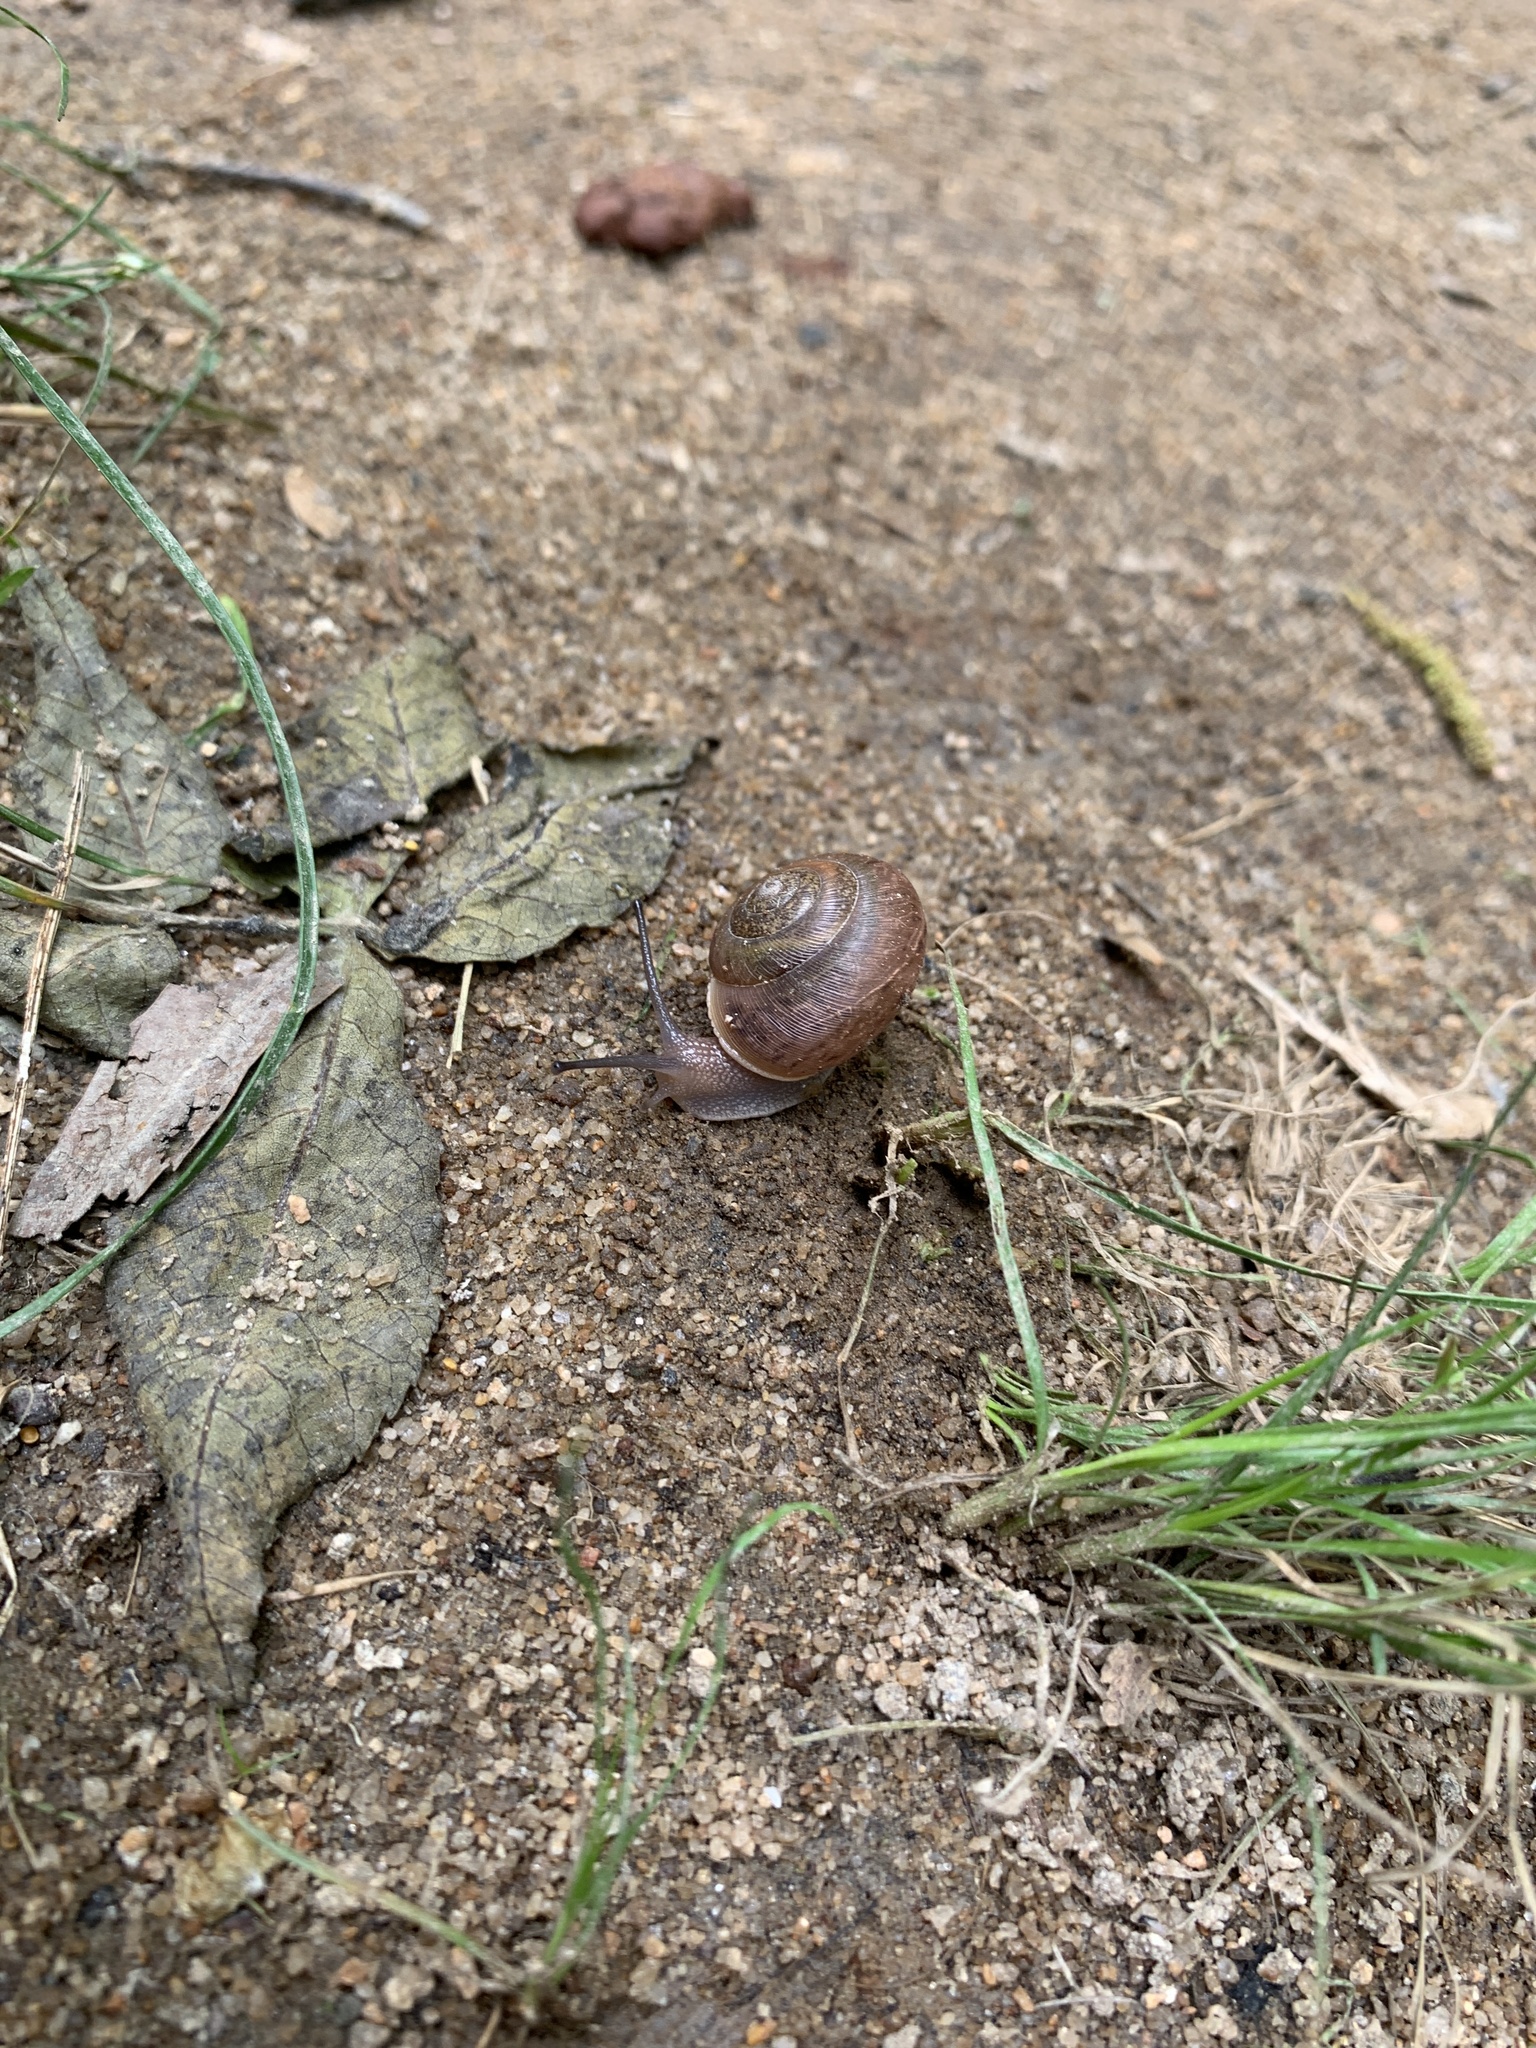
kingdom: Animalia
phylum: Mollusca
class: Gastropoda
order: Stylommatophora
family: Polygyridae
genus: Neohelix
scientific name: Neohelix albolabris
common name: Eastern whitelip
